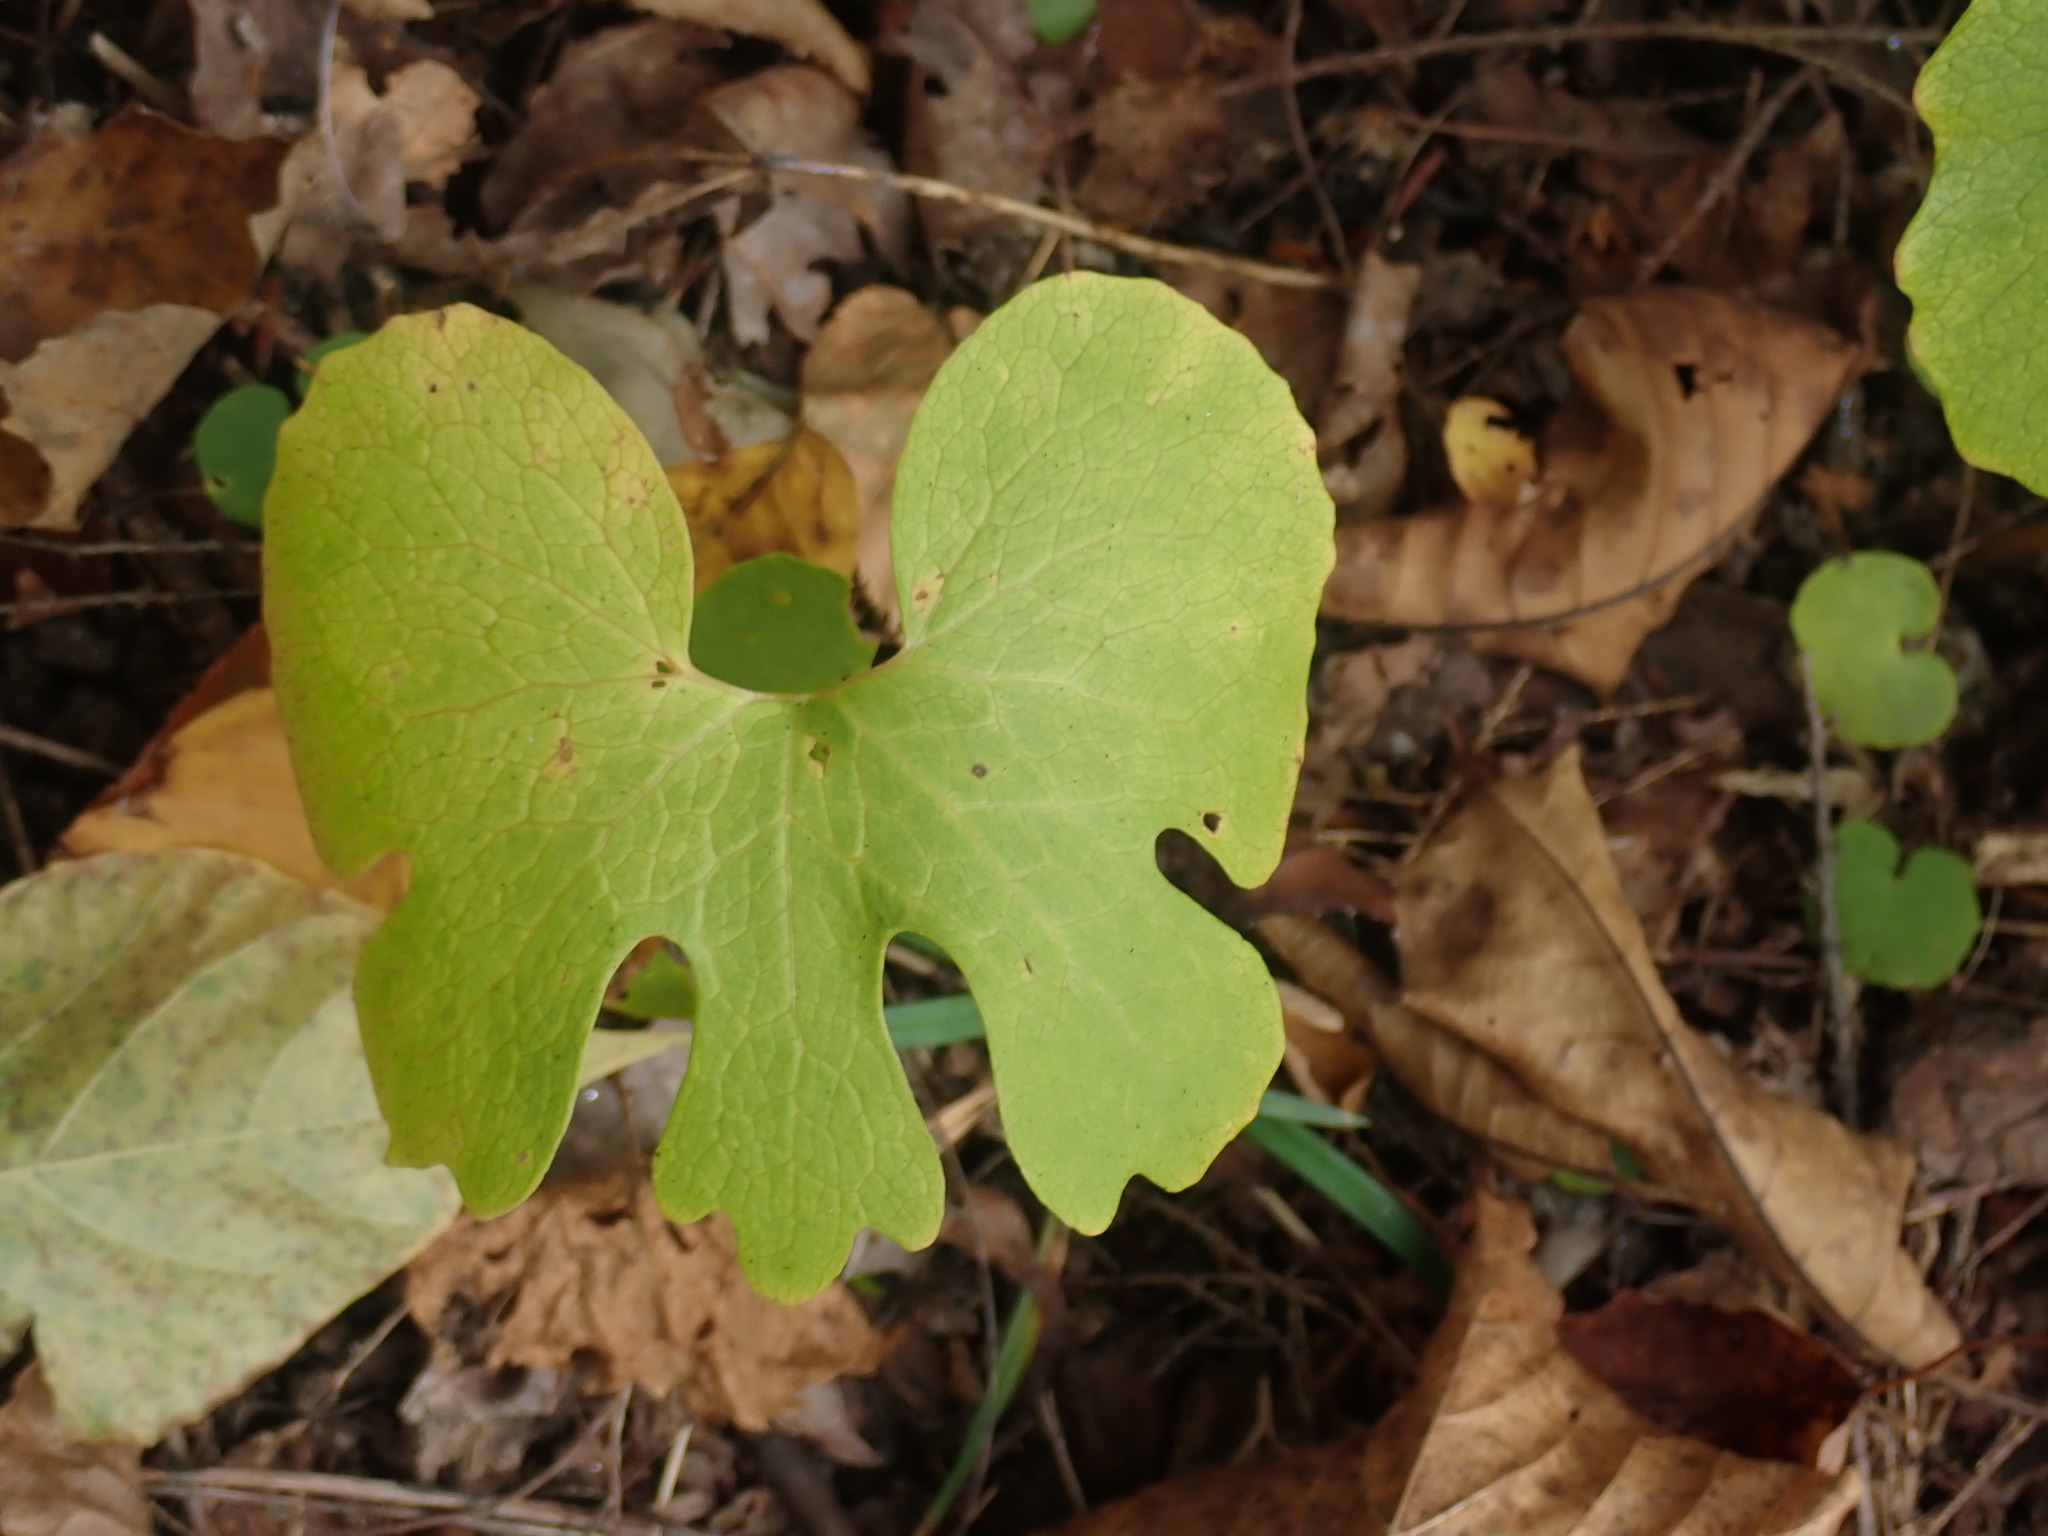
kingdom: Plantae
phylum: Tracheophyta
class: Magnoliopsida
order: Ranunculales
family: Papaveraceae
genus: Sanguinaria
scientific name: Sanguinaria canadensis
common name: Bloodroot
